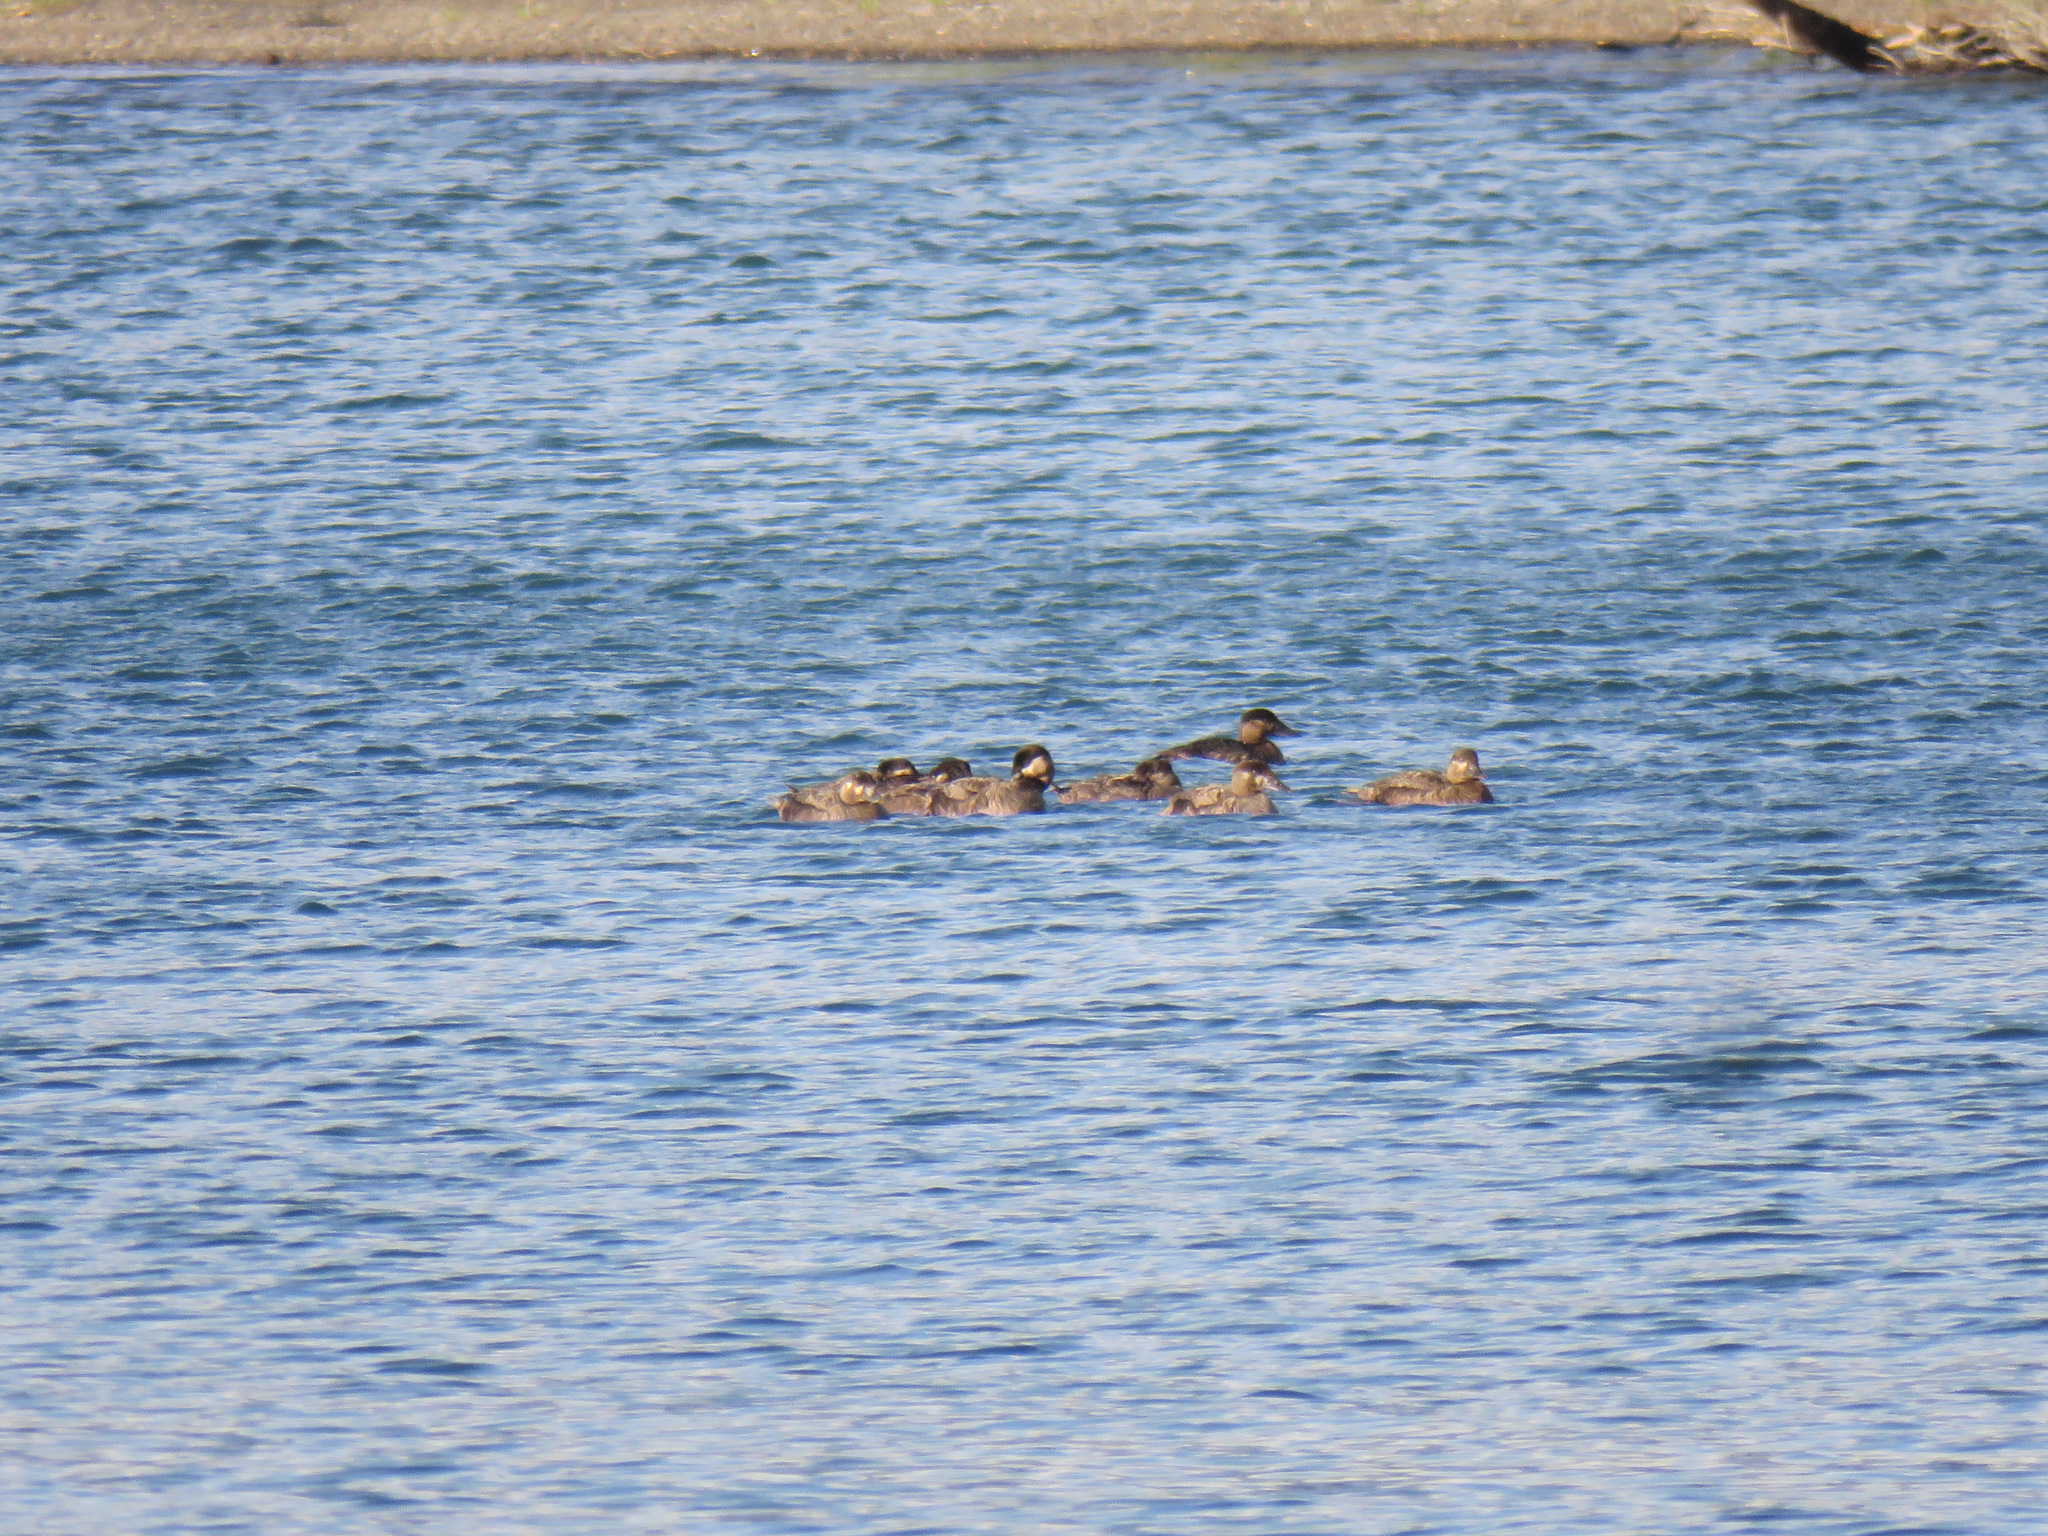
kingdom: Animalia
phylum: Chordata
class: Aves
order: Anseriformes
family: Anatidae
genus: Melanitta
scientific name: Melanitta perspicillata
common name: Surf scoter
